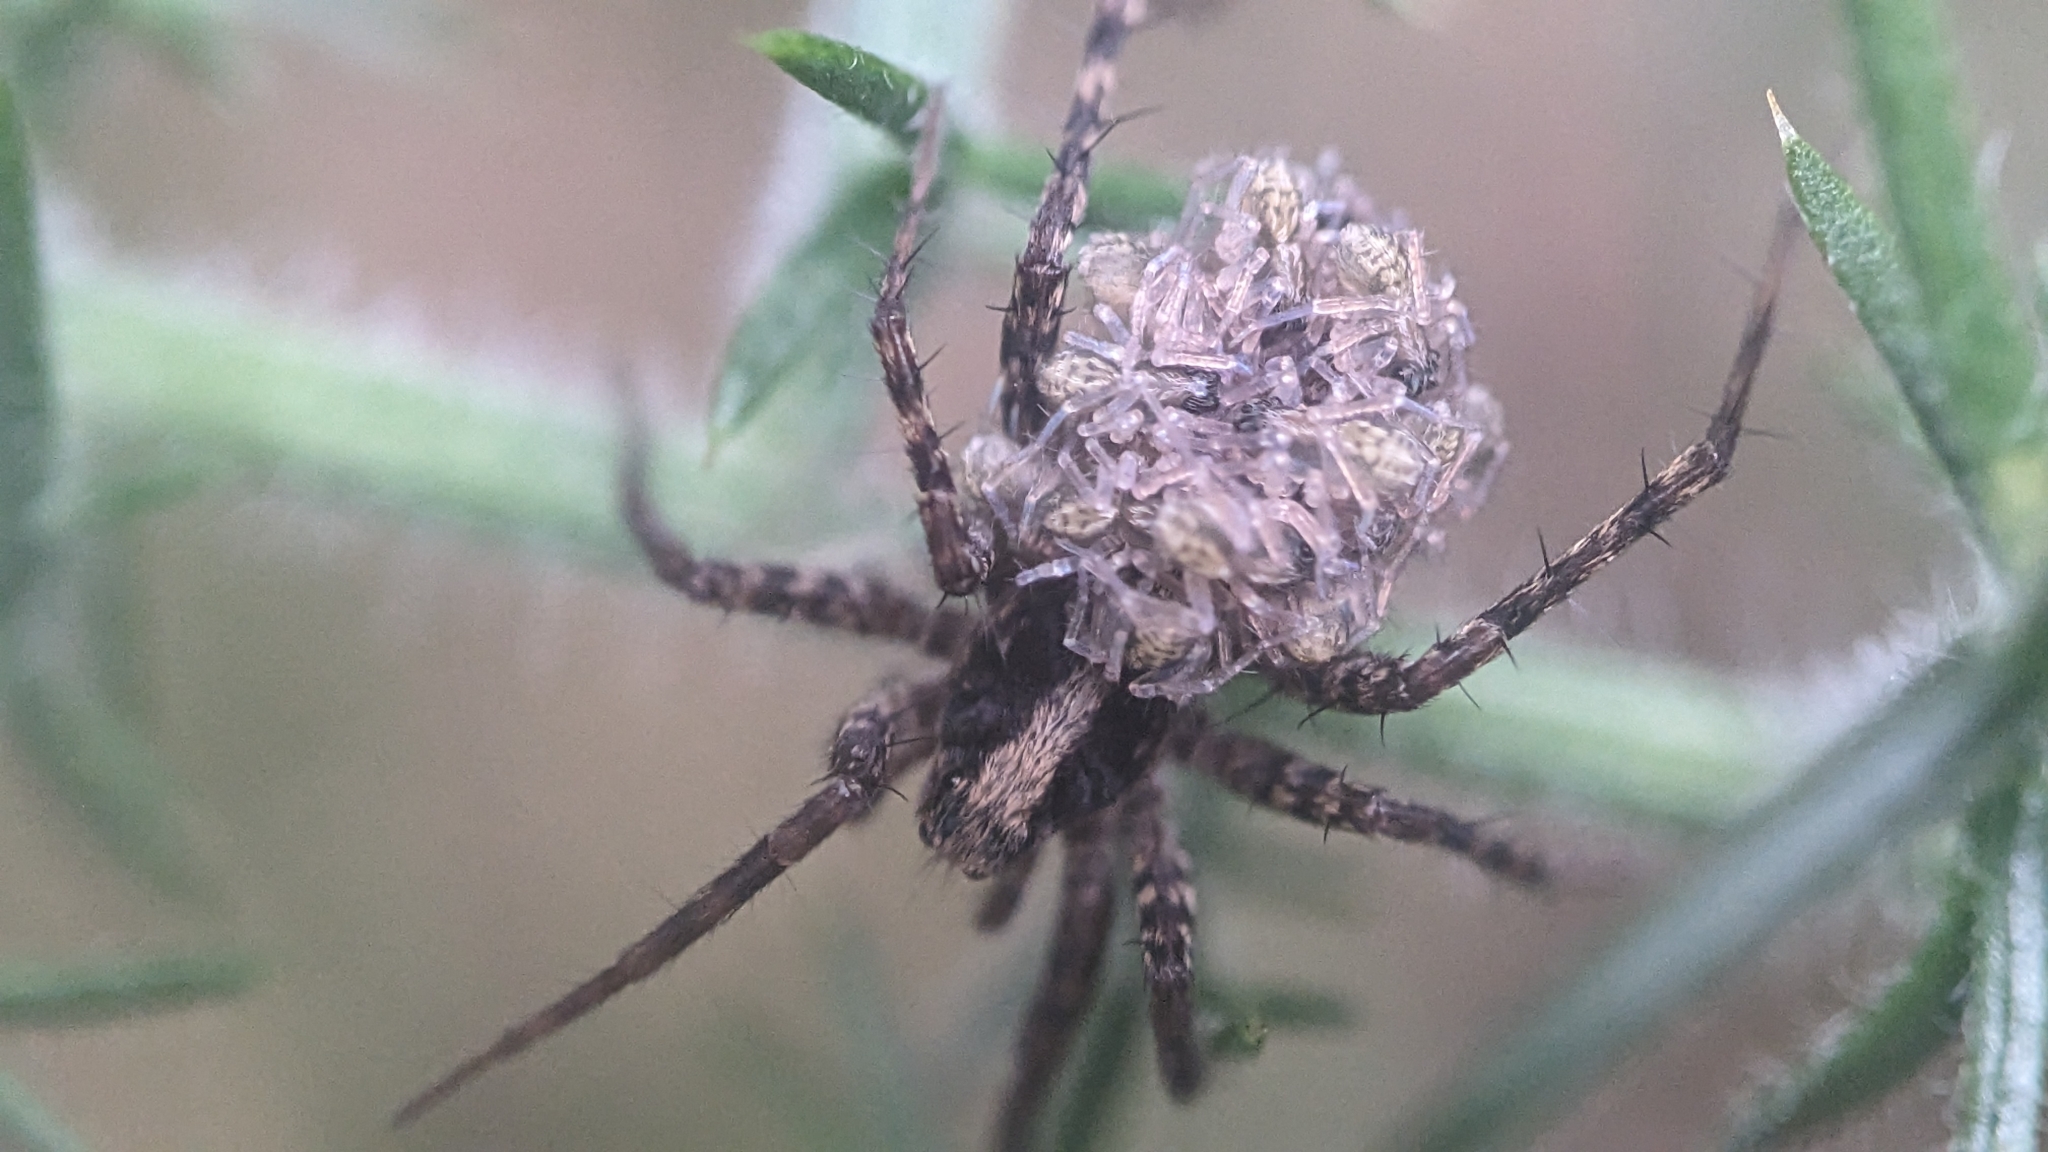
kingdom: Animalia
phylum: Arthropoda
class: Arachnida
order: Araneae
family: Lycosidae
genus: Pardosa
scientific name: Pardosa saltans
